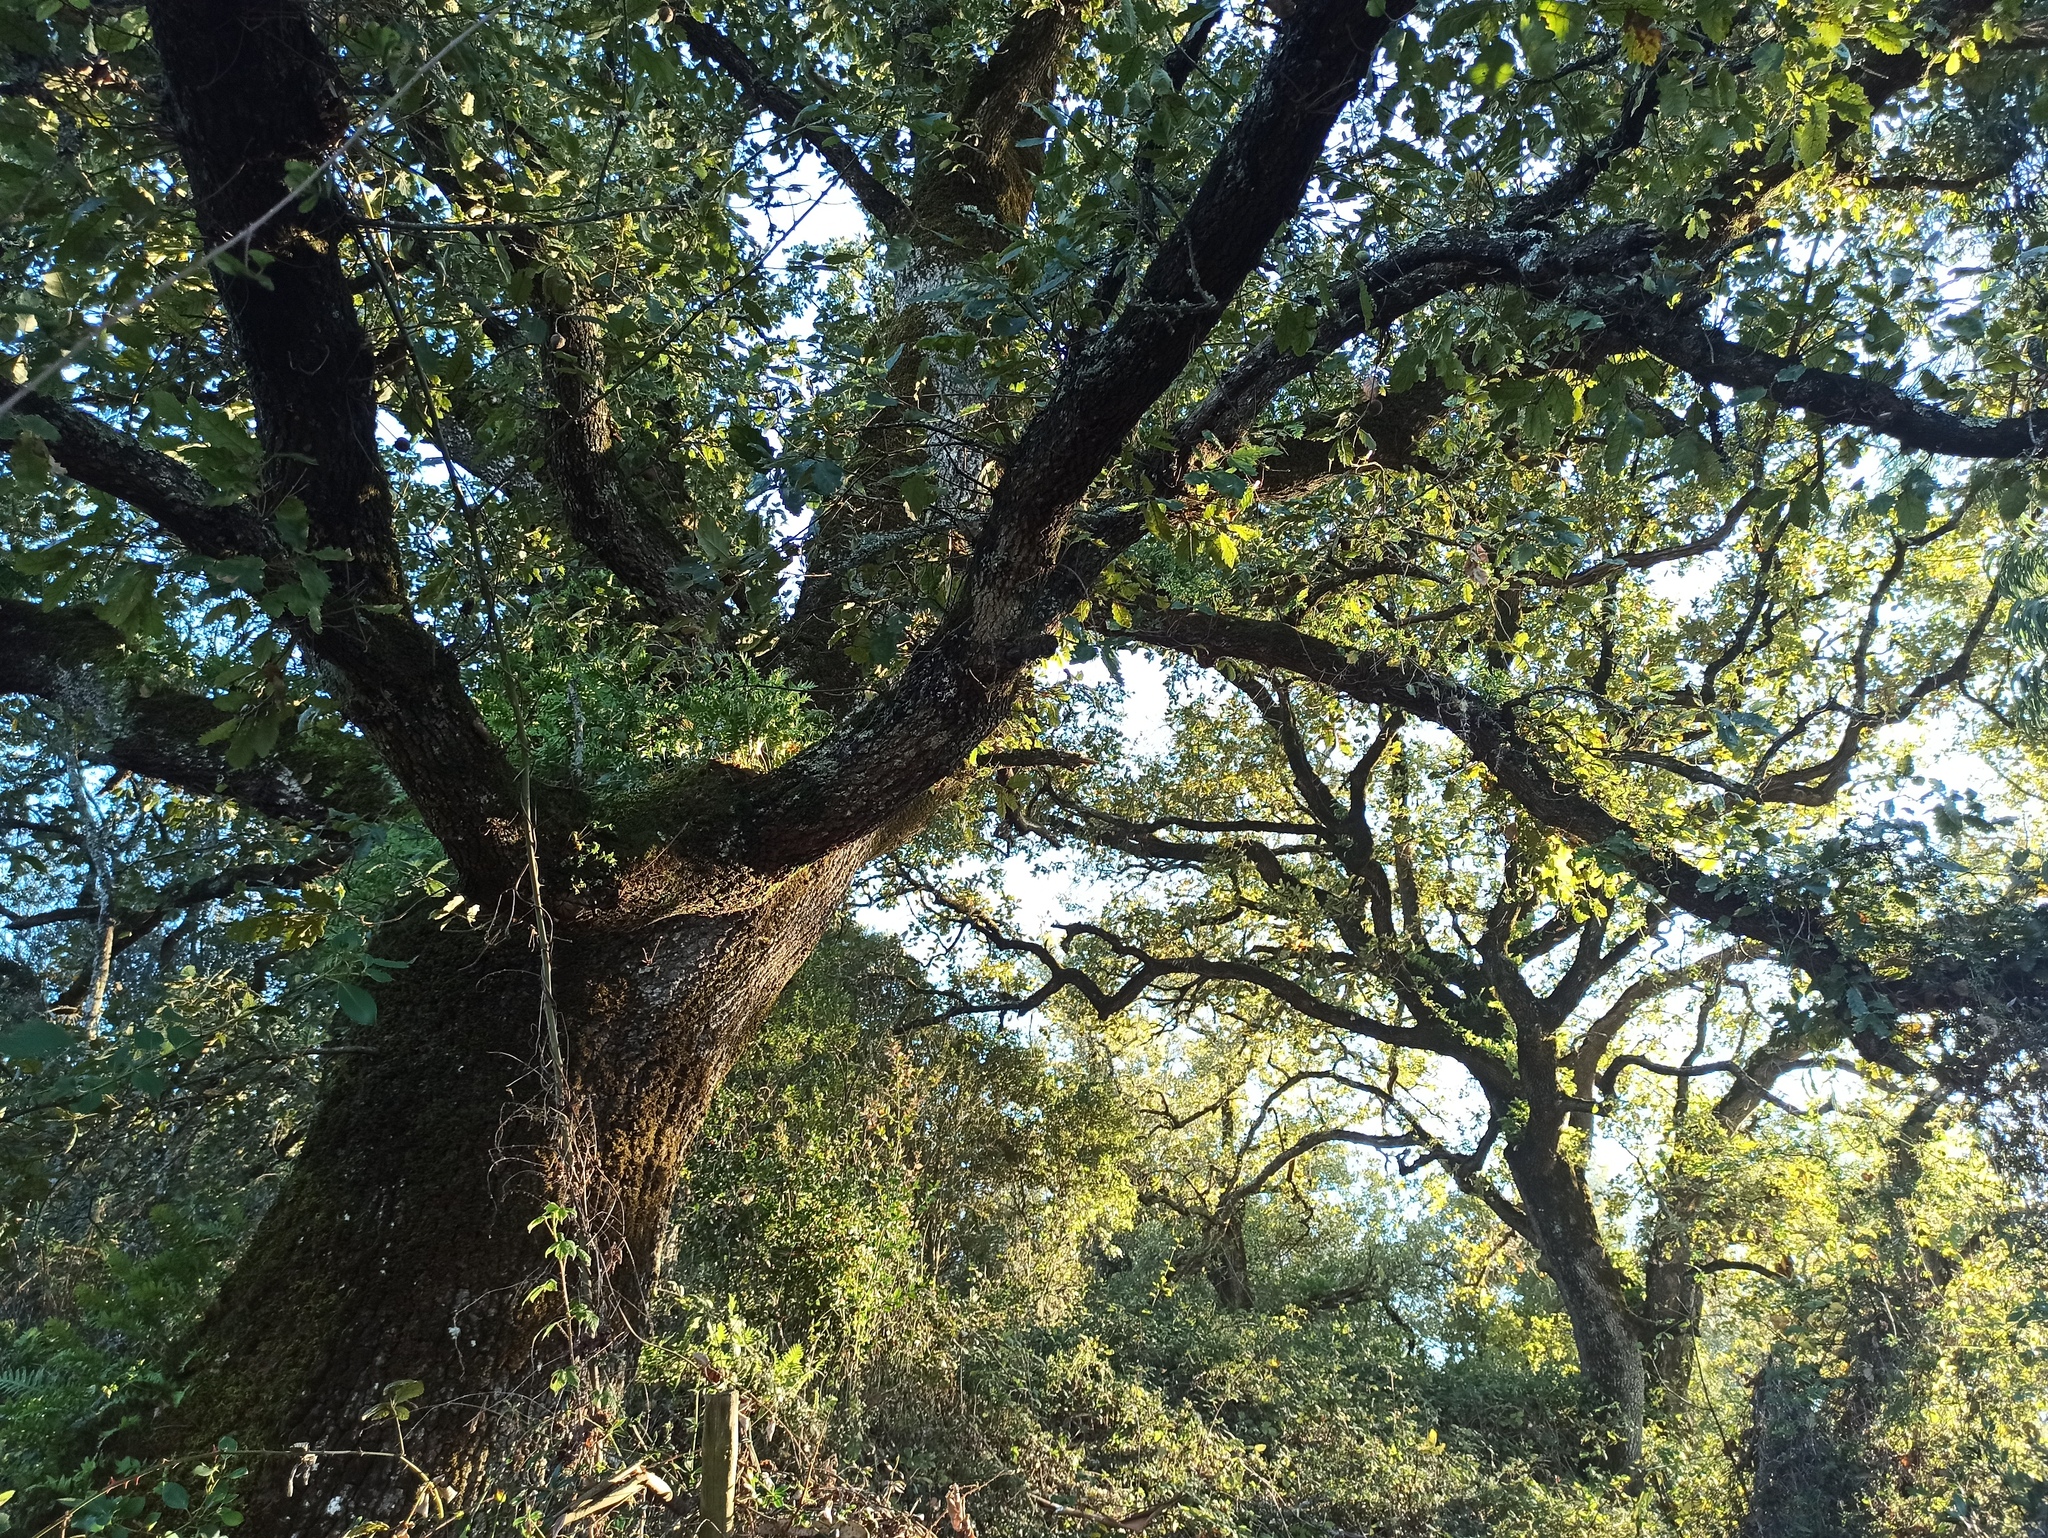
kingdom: Plantae
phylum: Tracheophyta
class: Magnoliopsida
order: Fagales
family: Fagaceae
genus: Quercus
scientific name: Quercus faginea
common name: Gall oak tree
